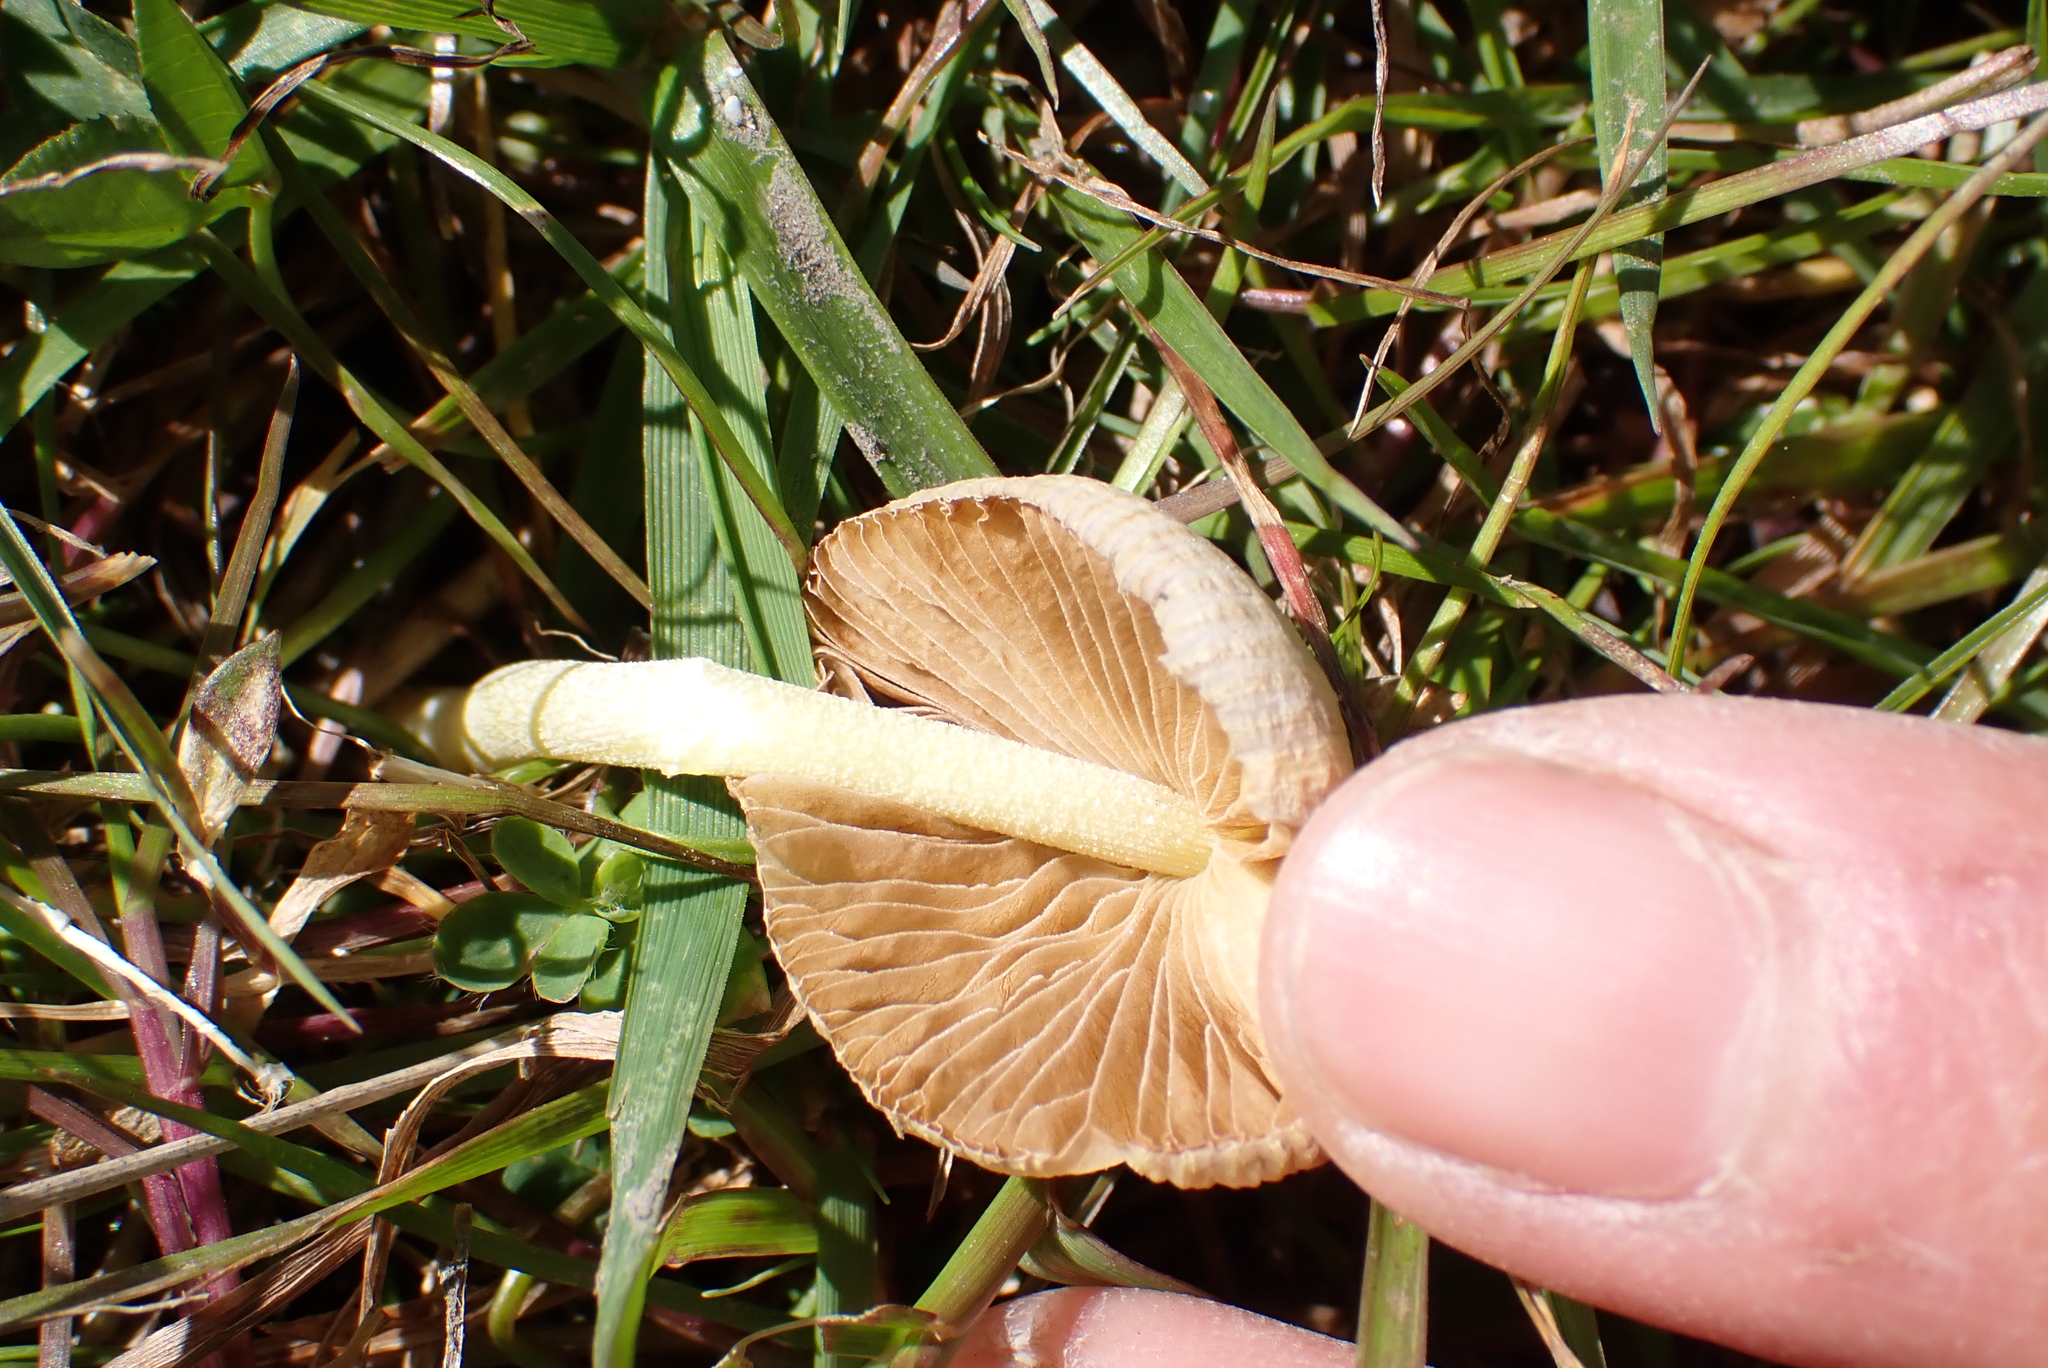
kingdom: Fungi
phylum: Basidiomycota
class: Agaricomycetes
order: Agaricales
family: Bolbitiaceae
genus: Bolbitius
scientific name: Bolbitius titubans
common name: Yellow fieldcap
